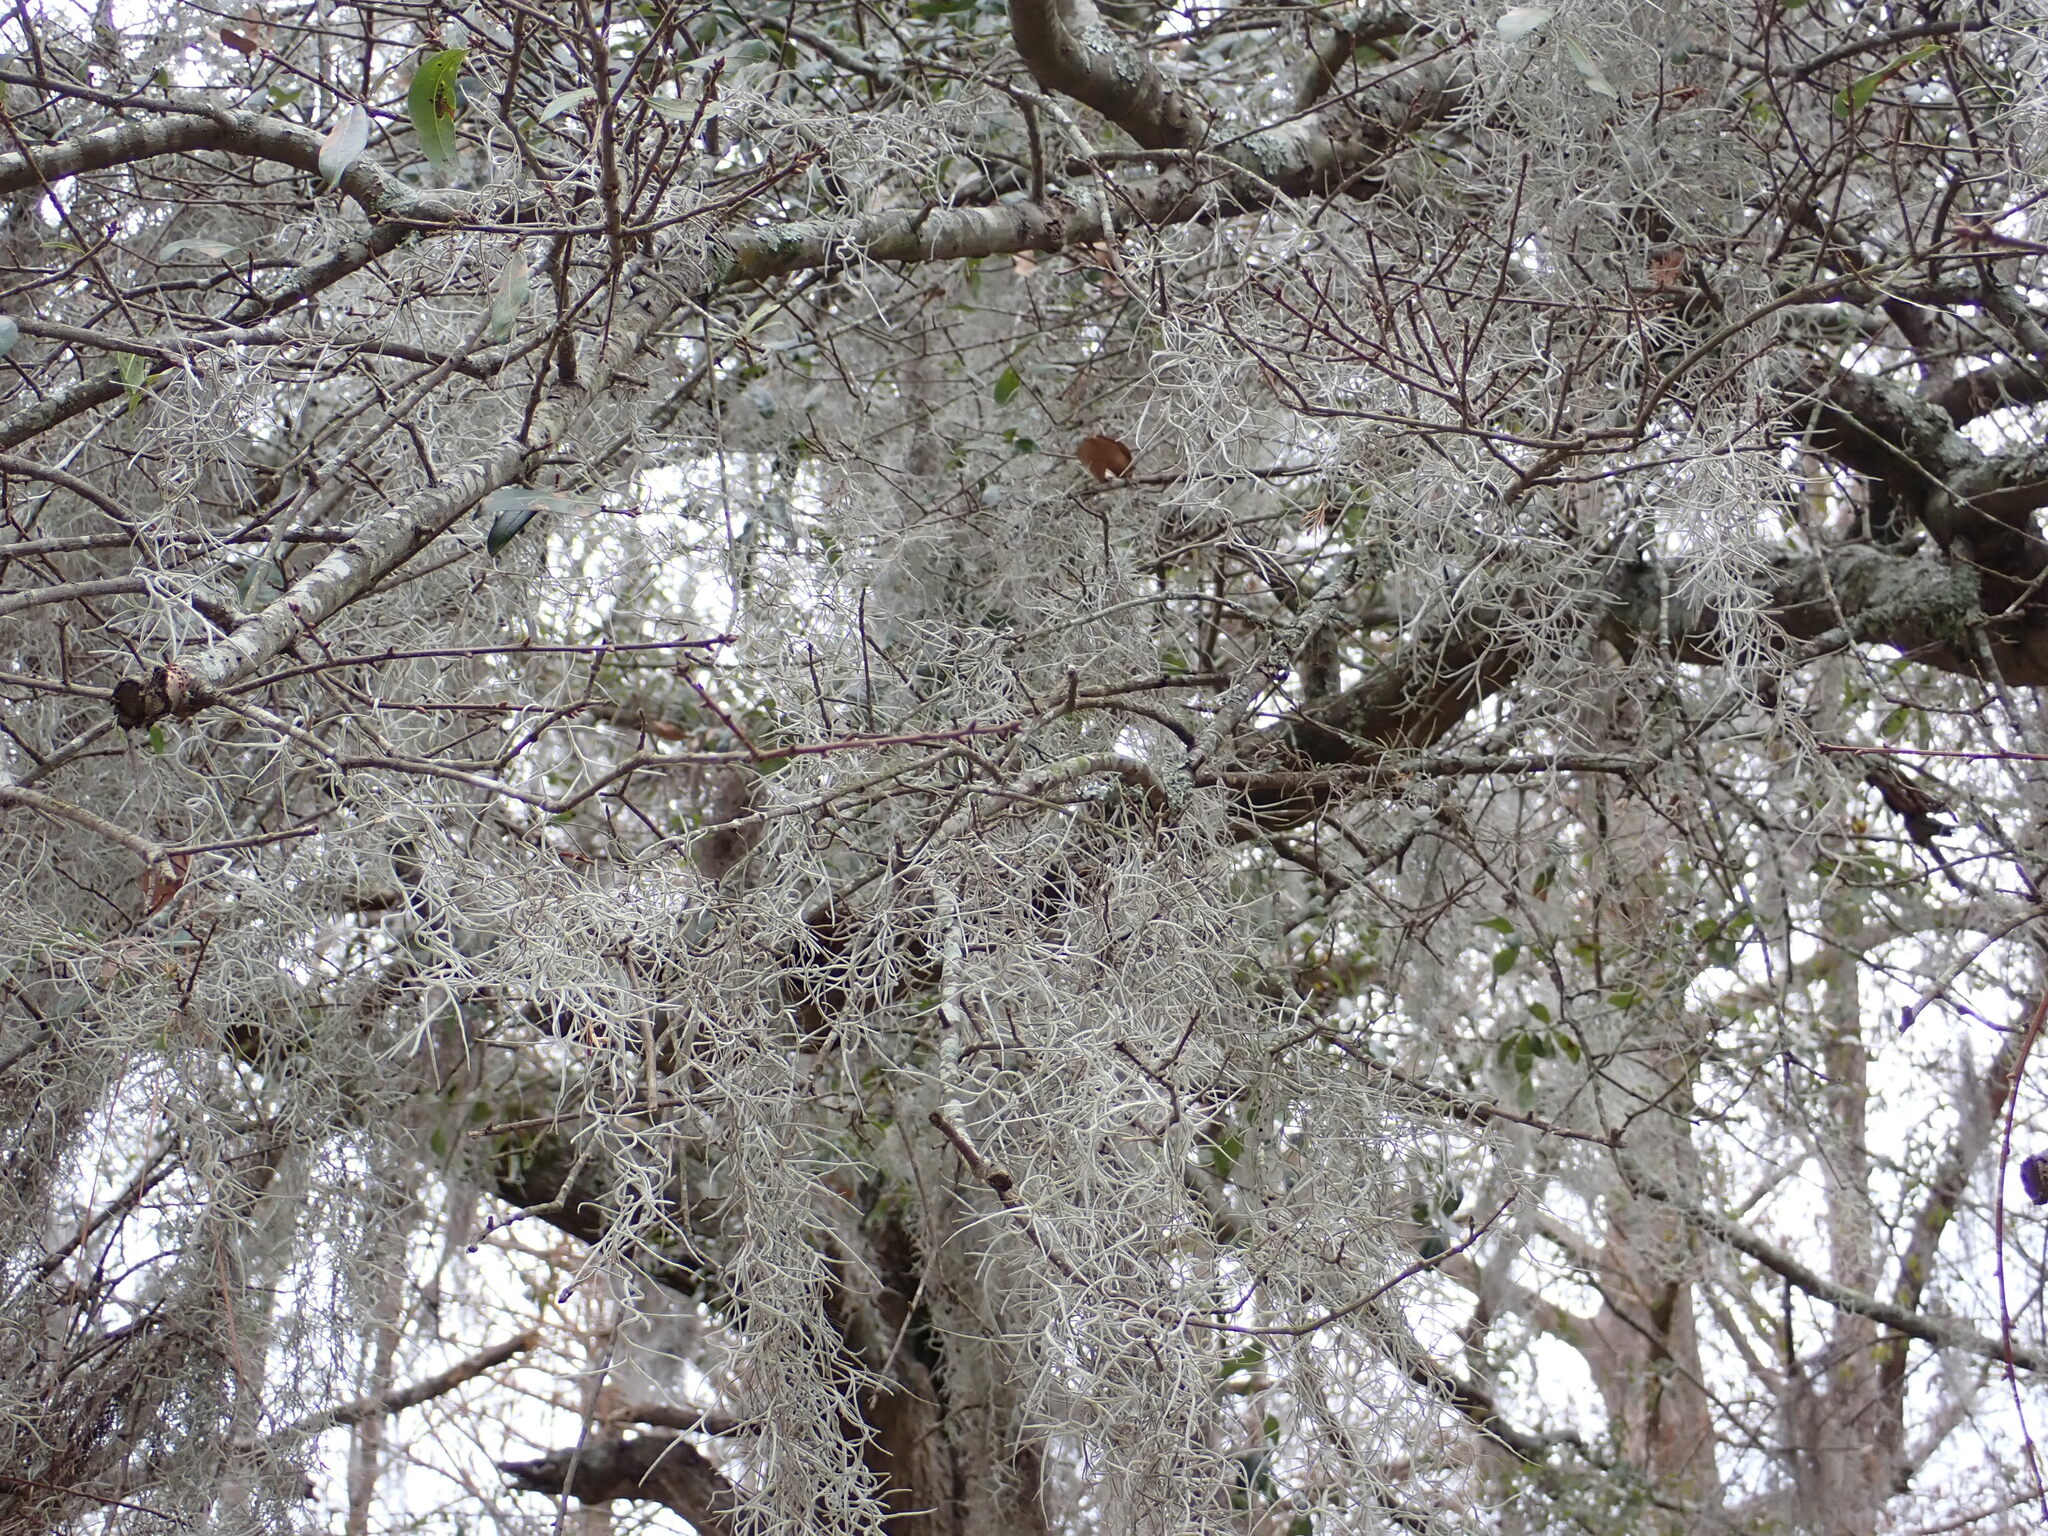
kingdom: Plantae
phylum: Tracheophyta
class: Liliopsida
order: Poales
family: Bromeliaceae
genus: Tillandsia
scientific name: Tillandsia usneoides
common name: Spanish moss
